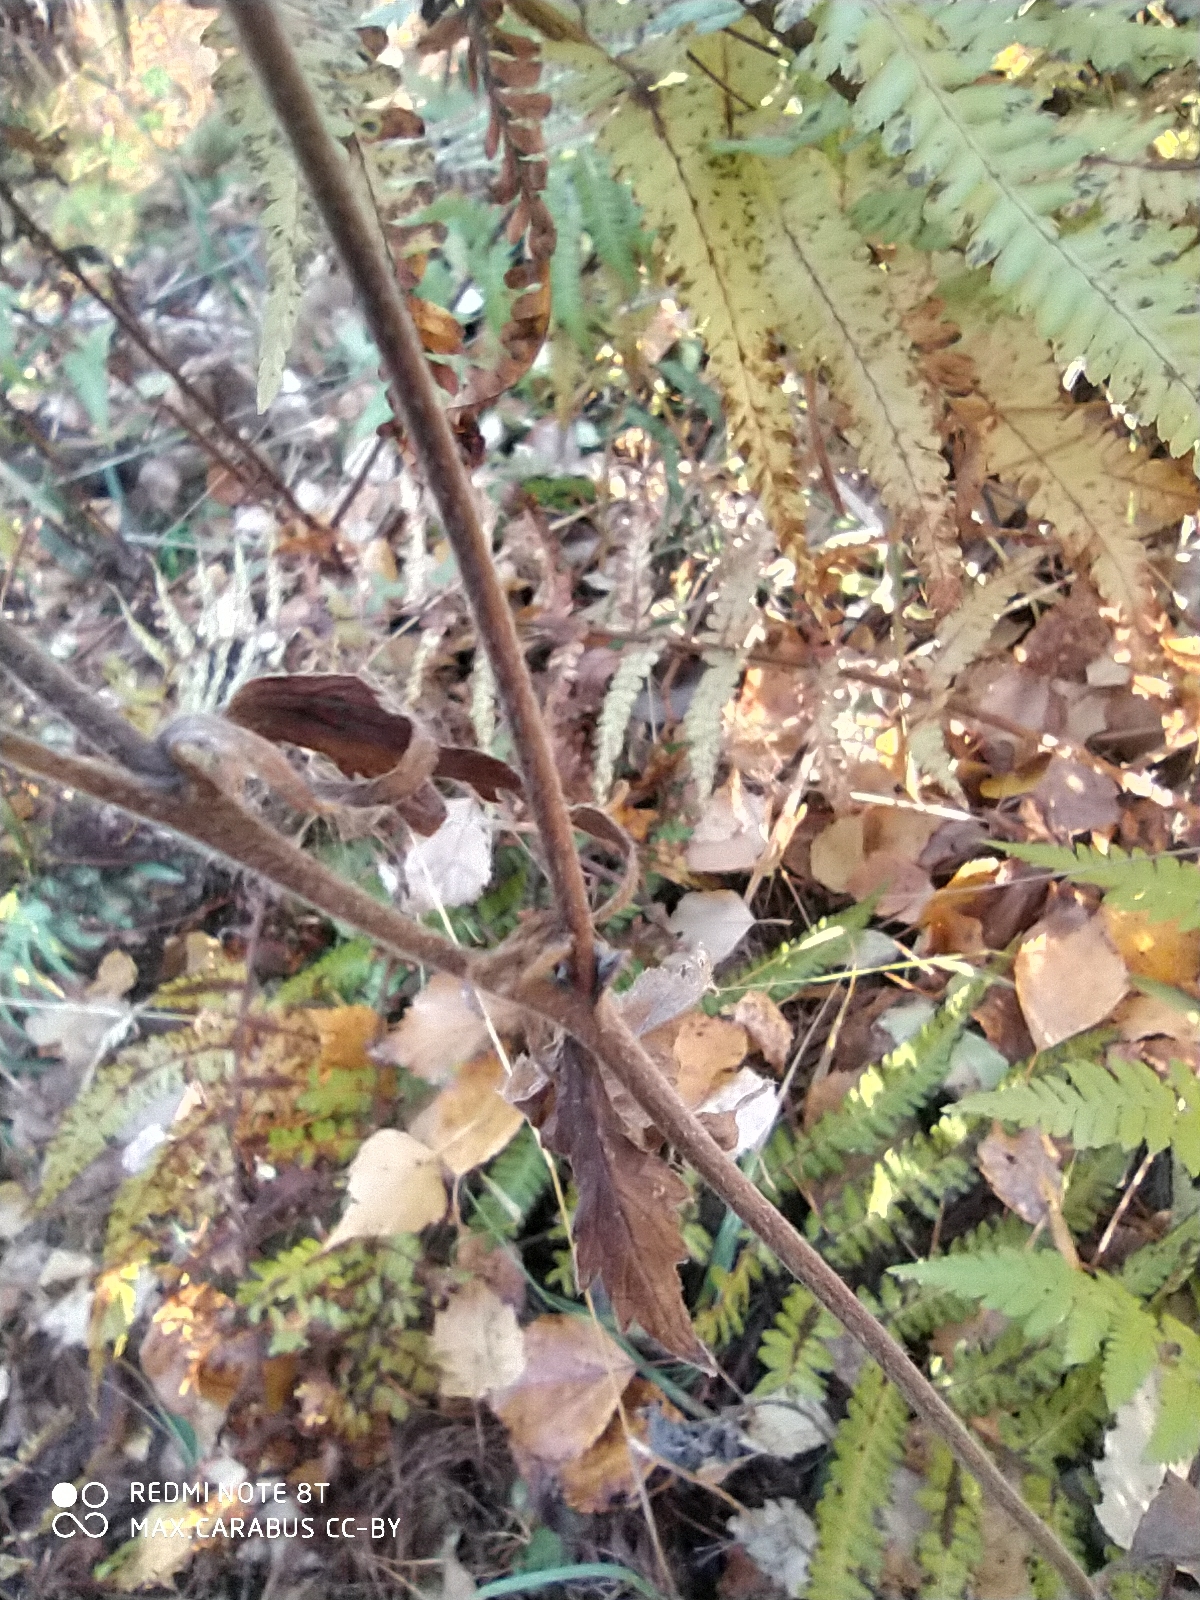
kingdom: Plantae
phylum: Tracheophyta
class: Magnoliopsida
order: Rosales
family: Rosaceae
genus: Geum
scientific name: Geum rivale
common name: Water avens
